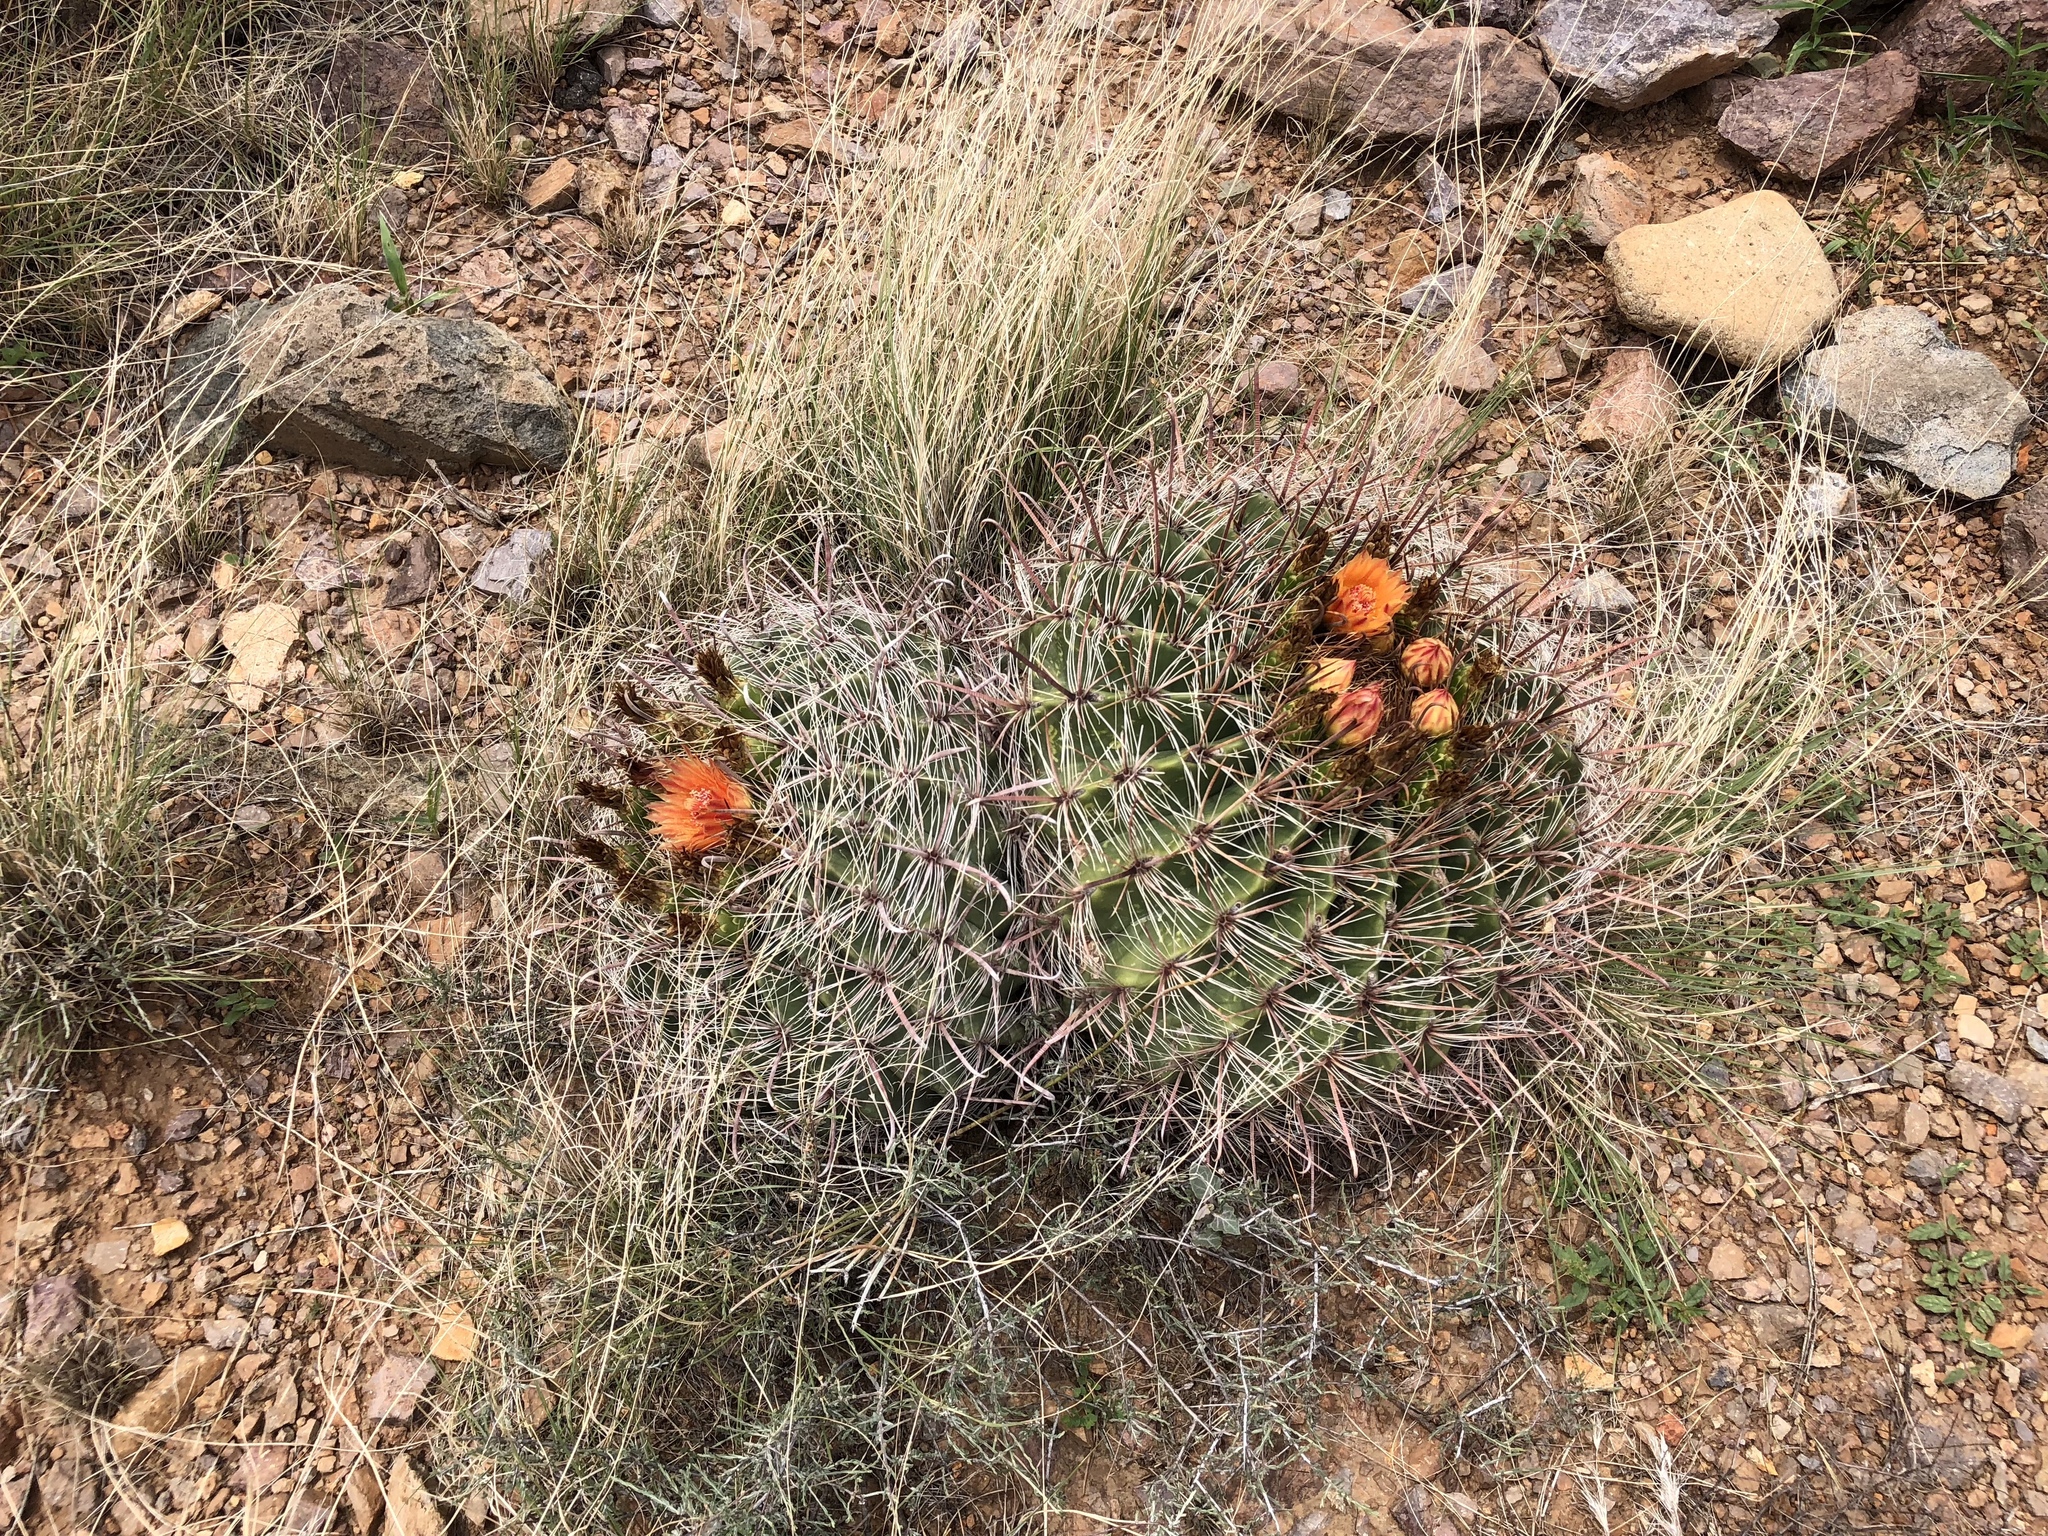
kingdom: Plantae
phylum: Tracheophyta
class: Magnoliopsida
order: Caryophyllales
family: Cactaceae
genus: Ferocactus
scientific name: Ferocactus wislizeni
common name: Candy barrel cactus
